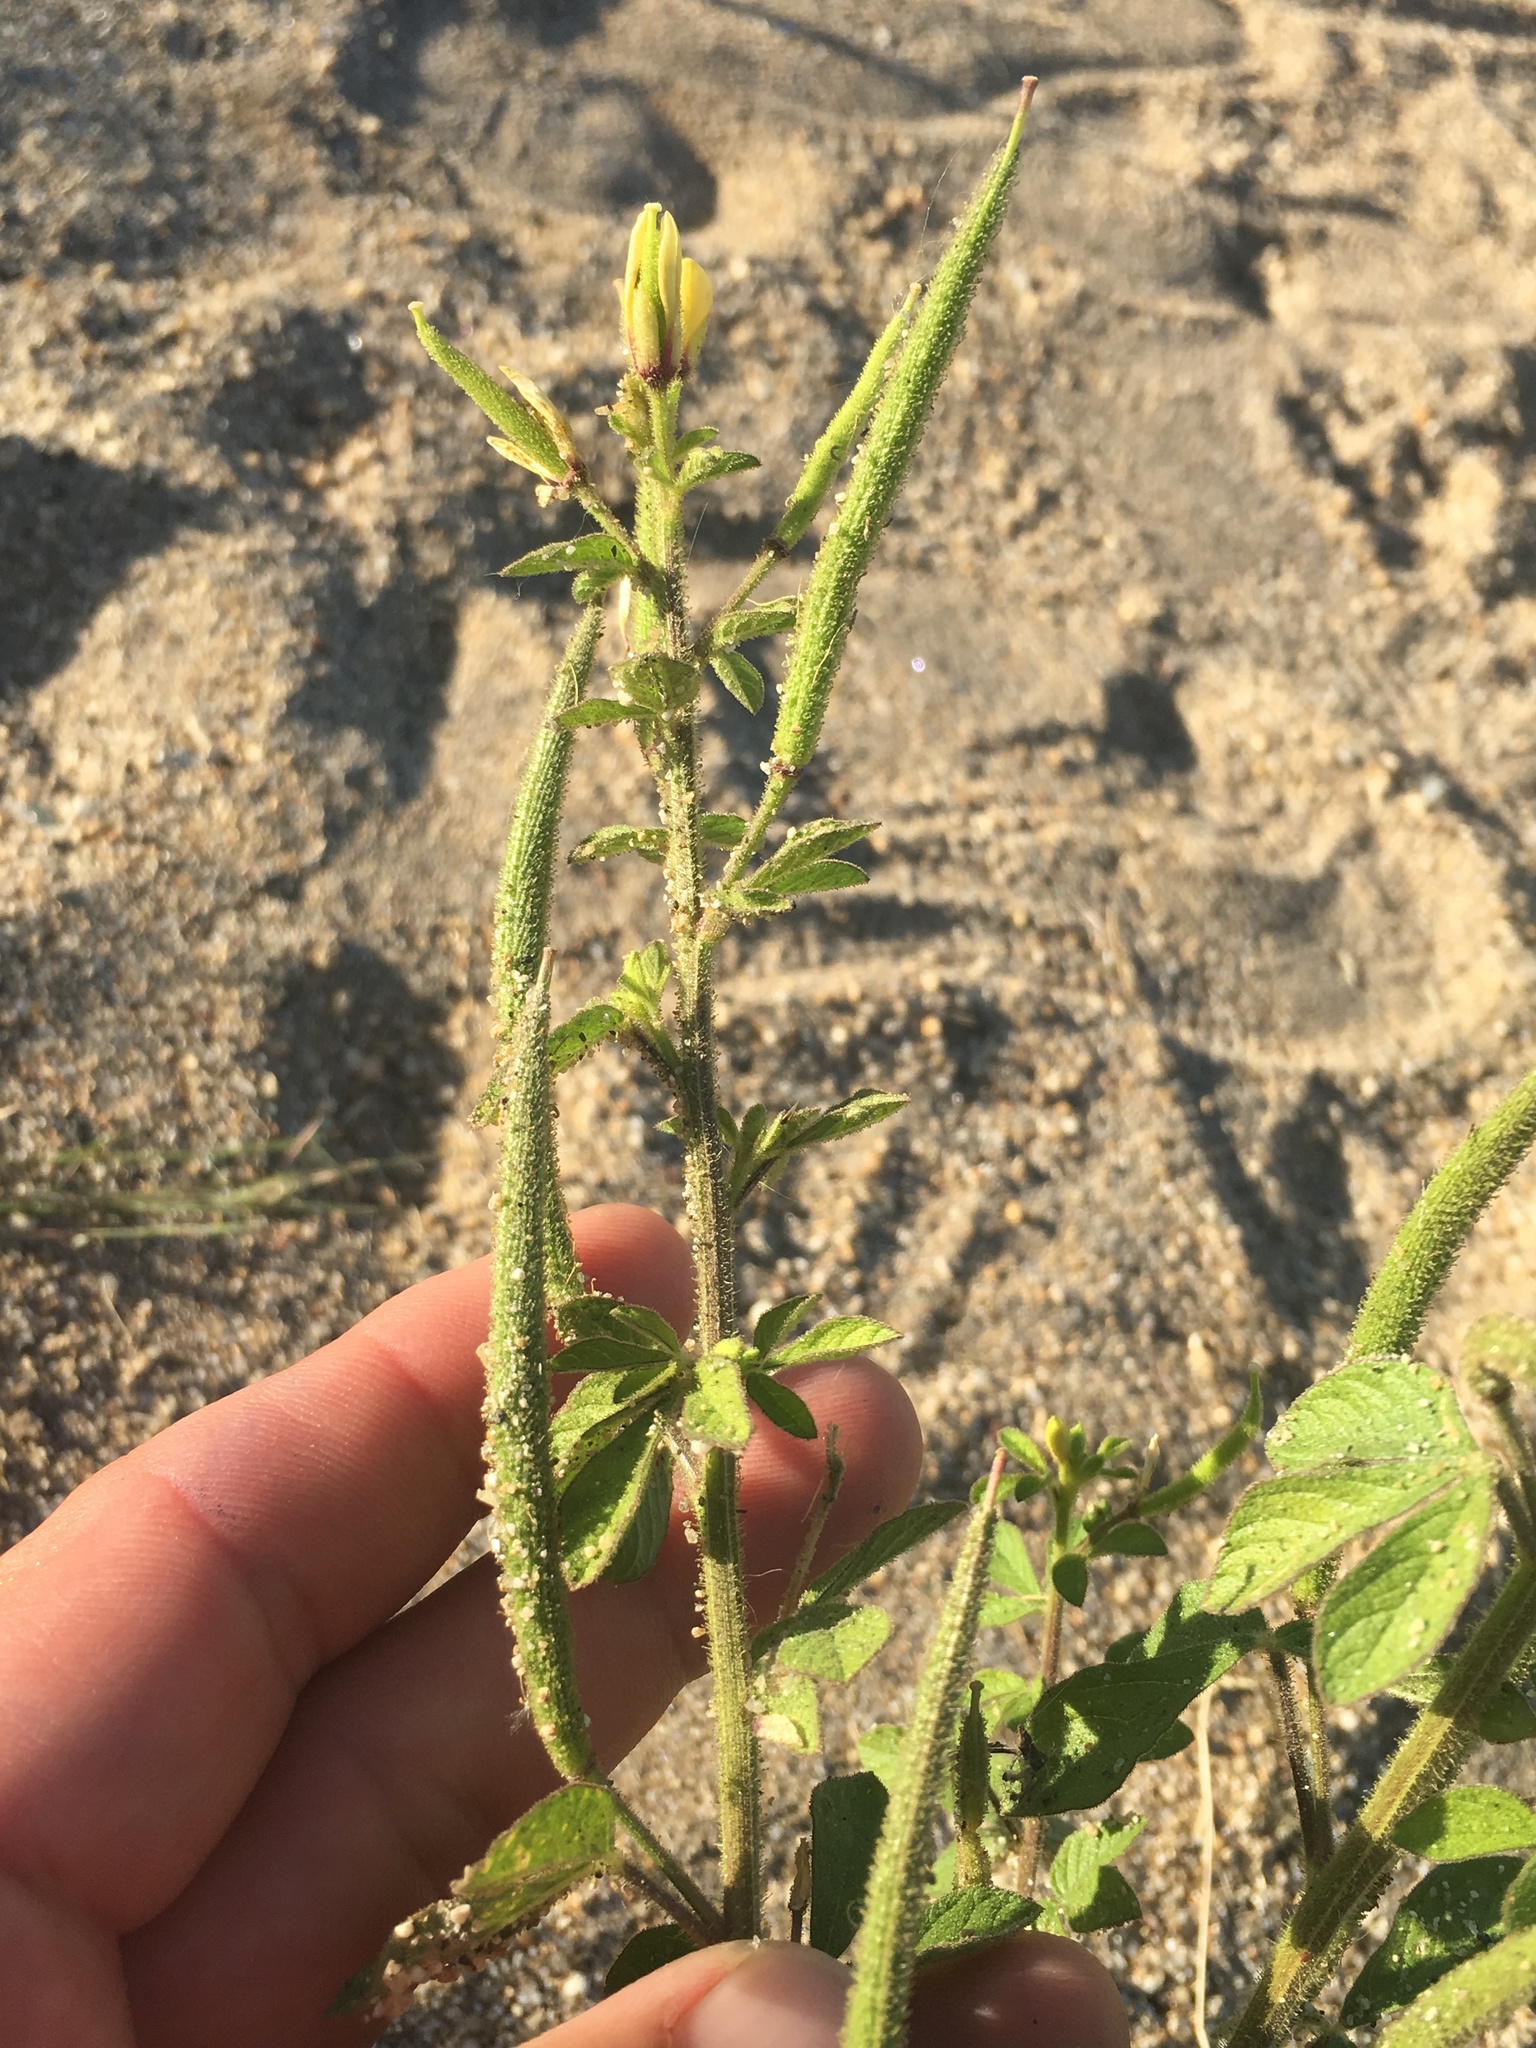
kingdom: Plantae
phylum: Tracheophyta
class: Magnoliopsida
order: Brassicales
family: Cleomaceae
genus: Arivela
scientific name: Arivela viscosa
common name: Asian spiderflower
